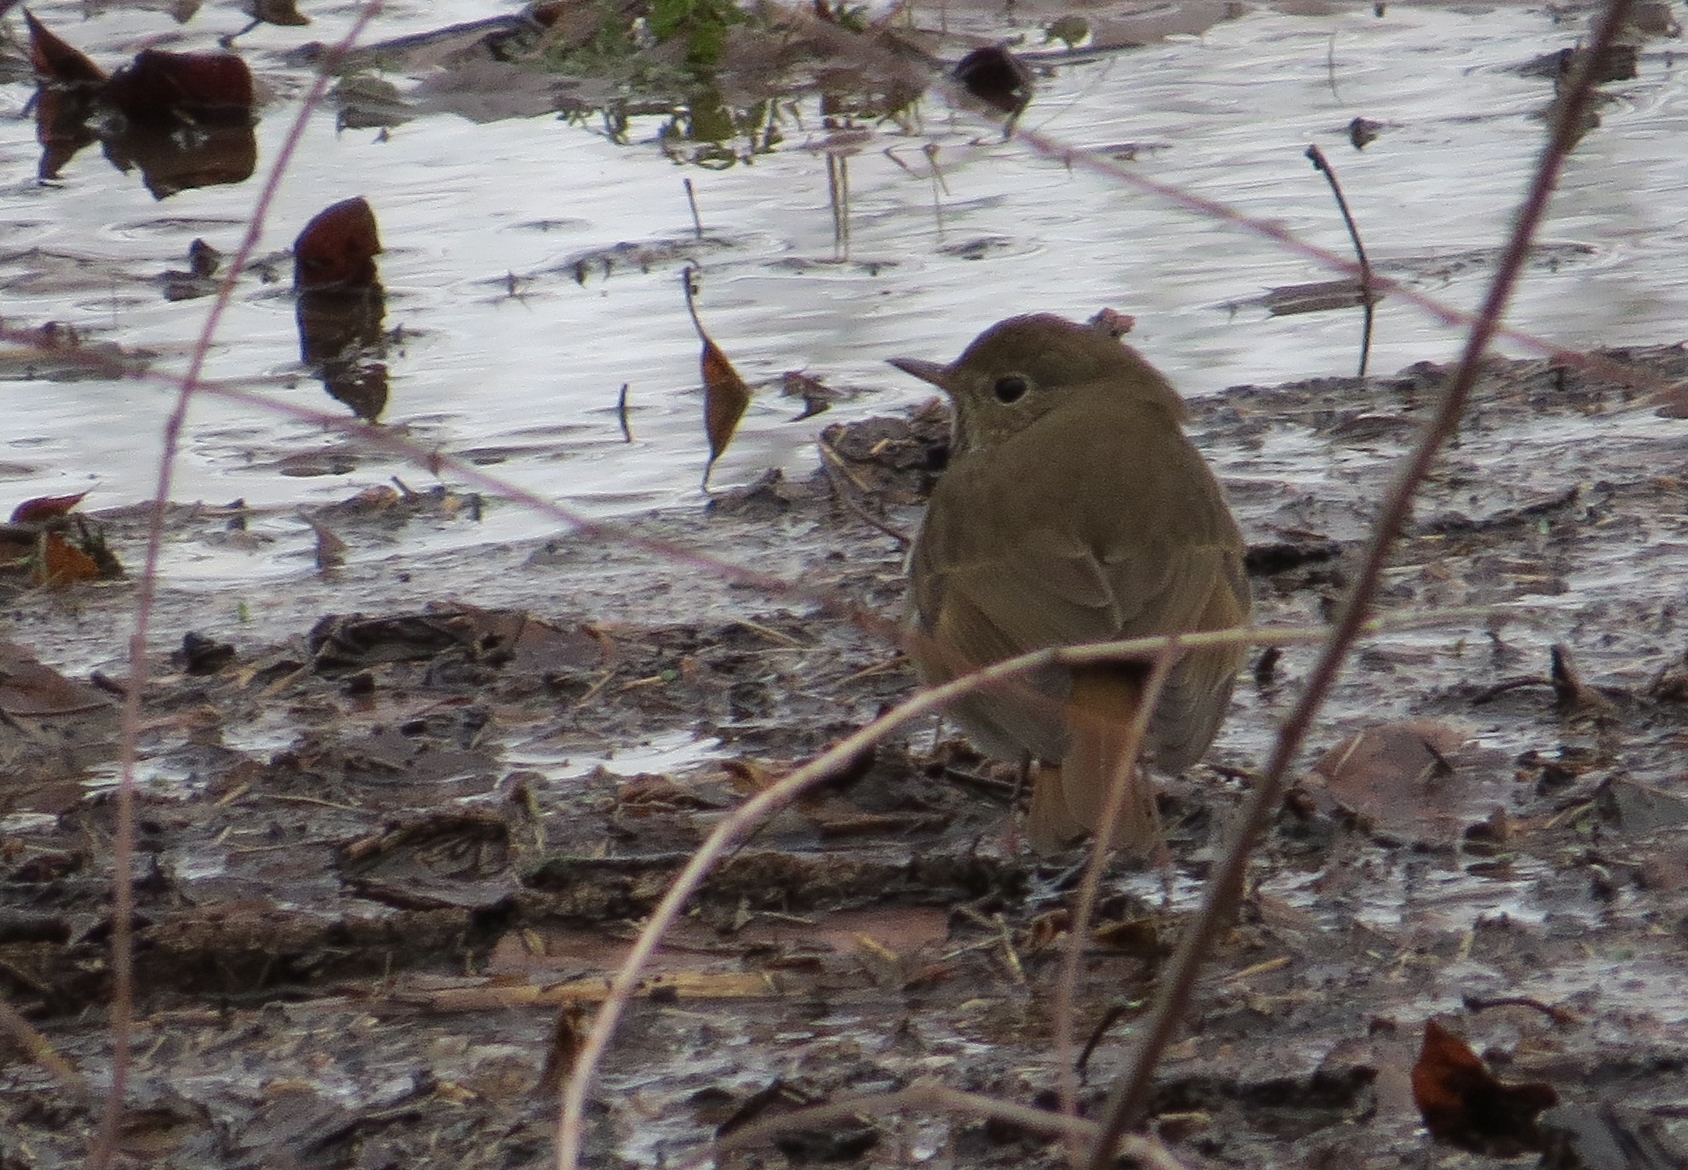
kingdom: Animalia
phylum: Chordata
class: Aves
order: Passeriformes
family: Turdidae
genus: Catharus
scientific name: Catharus guttatus
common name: Hermit thrush
